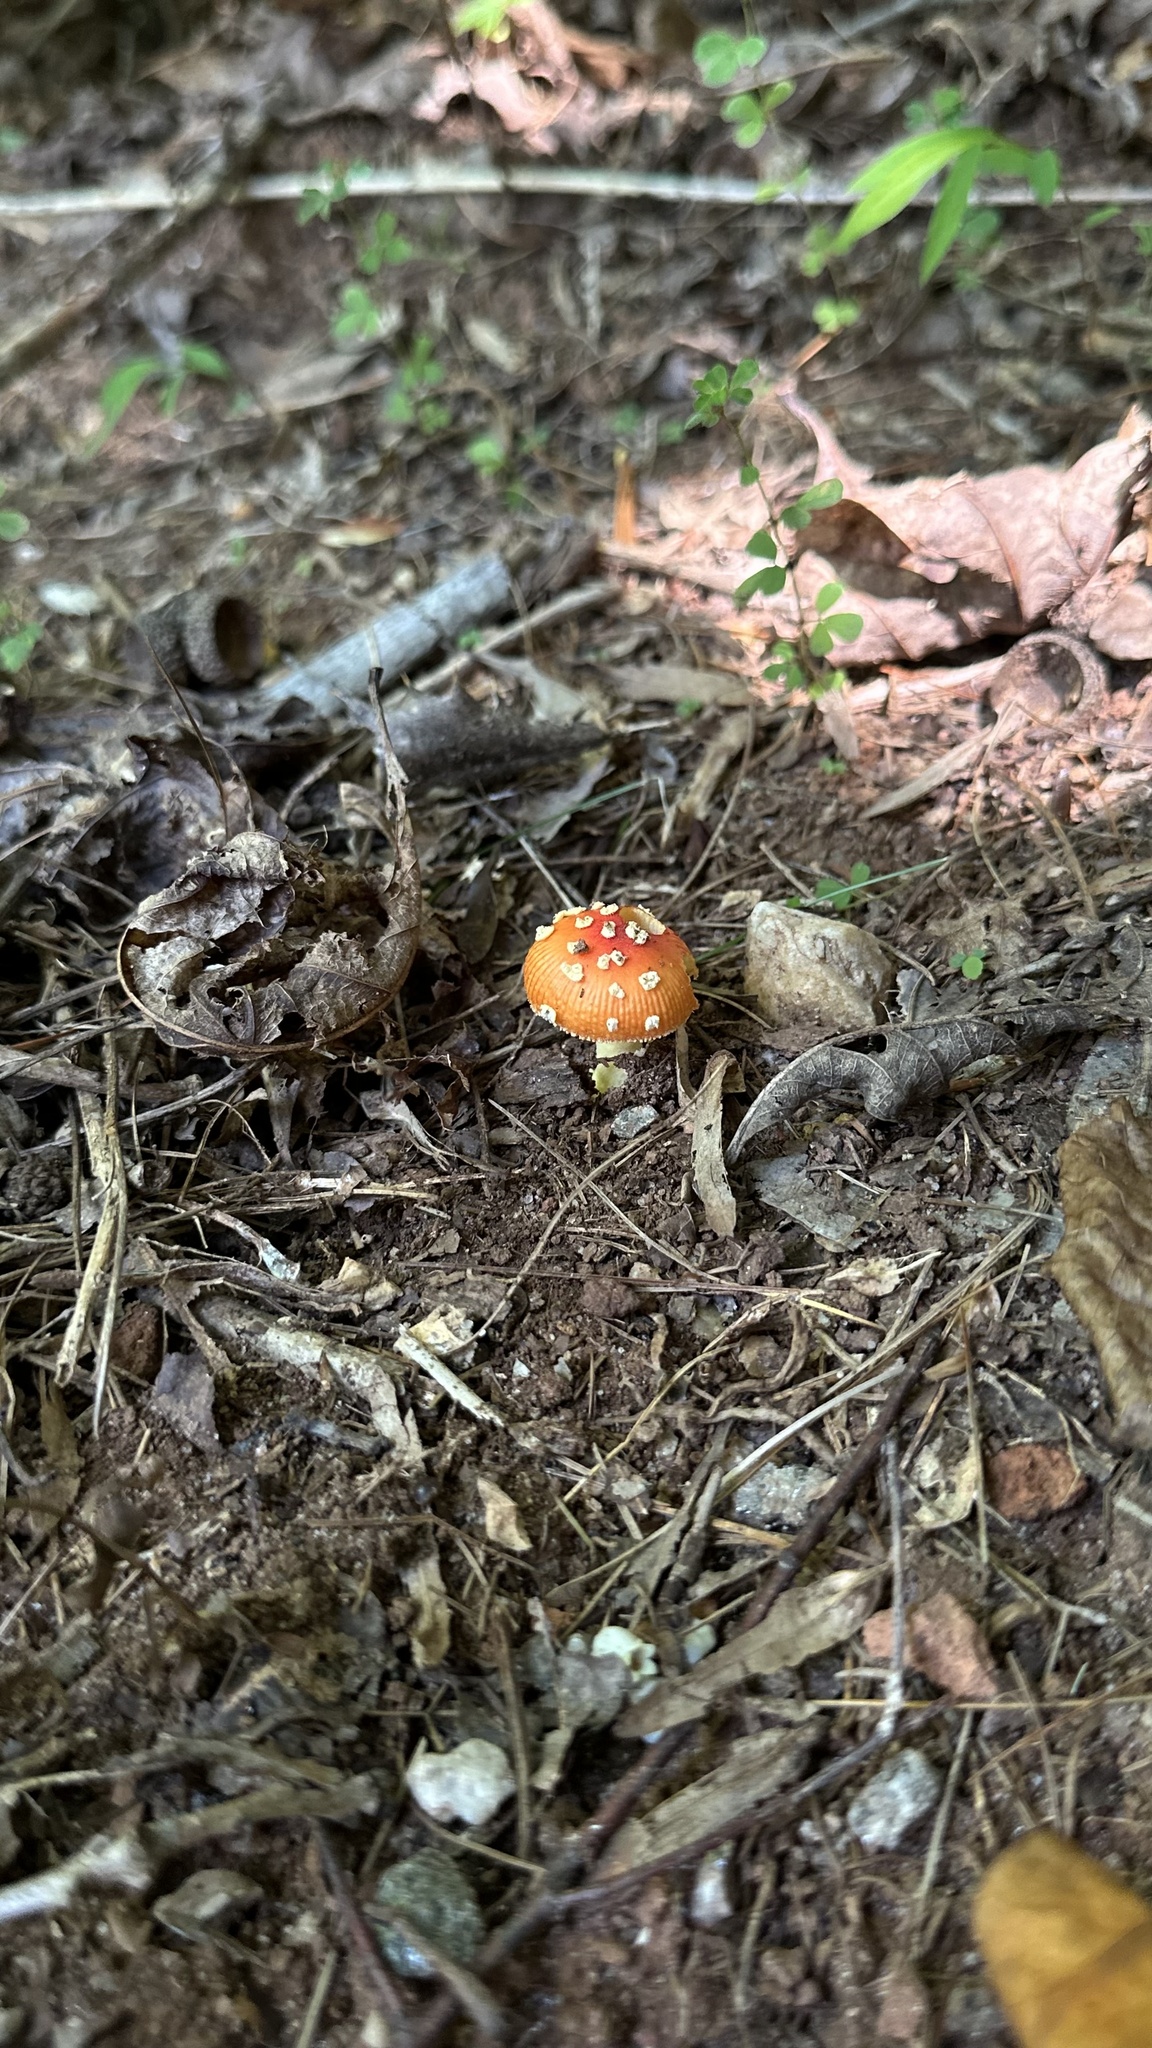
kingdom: Fungi
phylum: Basidiomycota
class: Agaricomycetes
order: Agaricales
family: Amanitaceae
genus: Amanita
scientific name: Amanita parcivolvata
